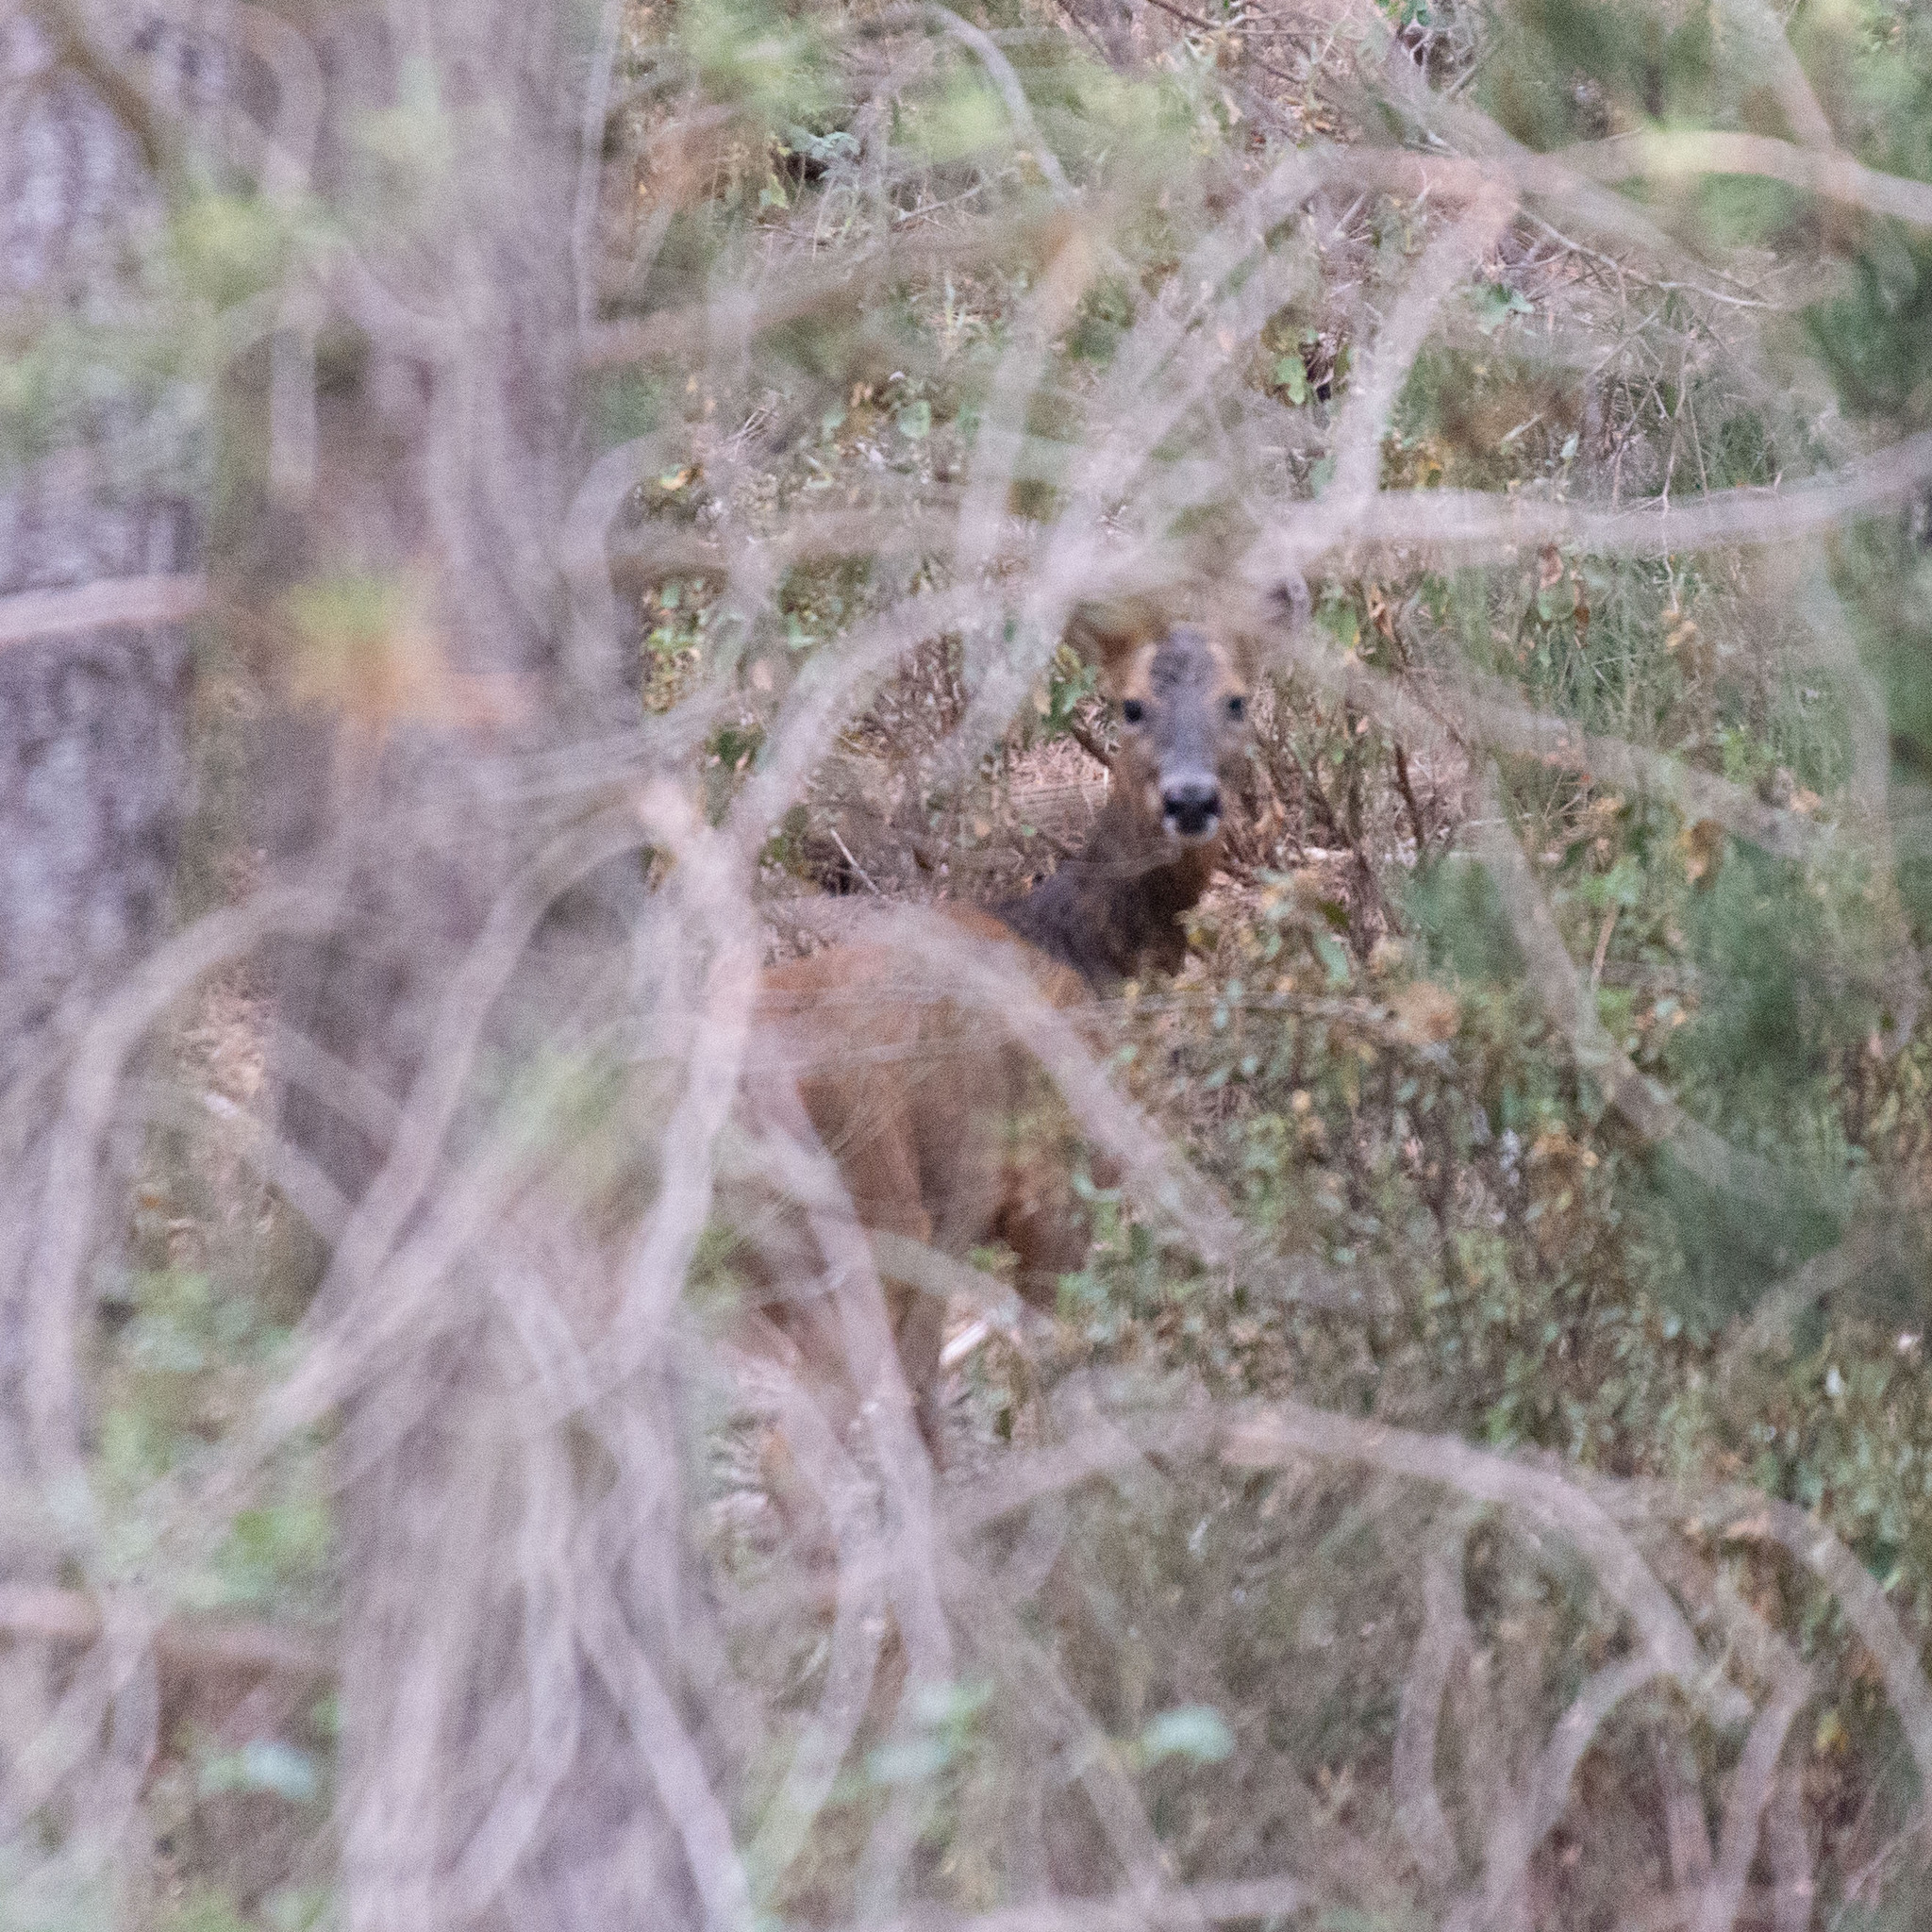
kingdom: Animalia
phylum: Chordata
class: Mammalia
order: Artiodactyla
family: Cervidae
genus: Capreolus
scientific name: Capreolus capreolus
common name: Western roe deer
